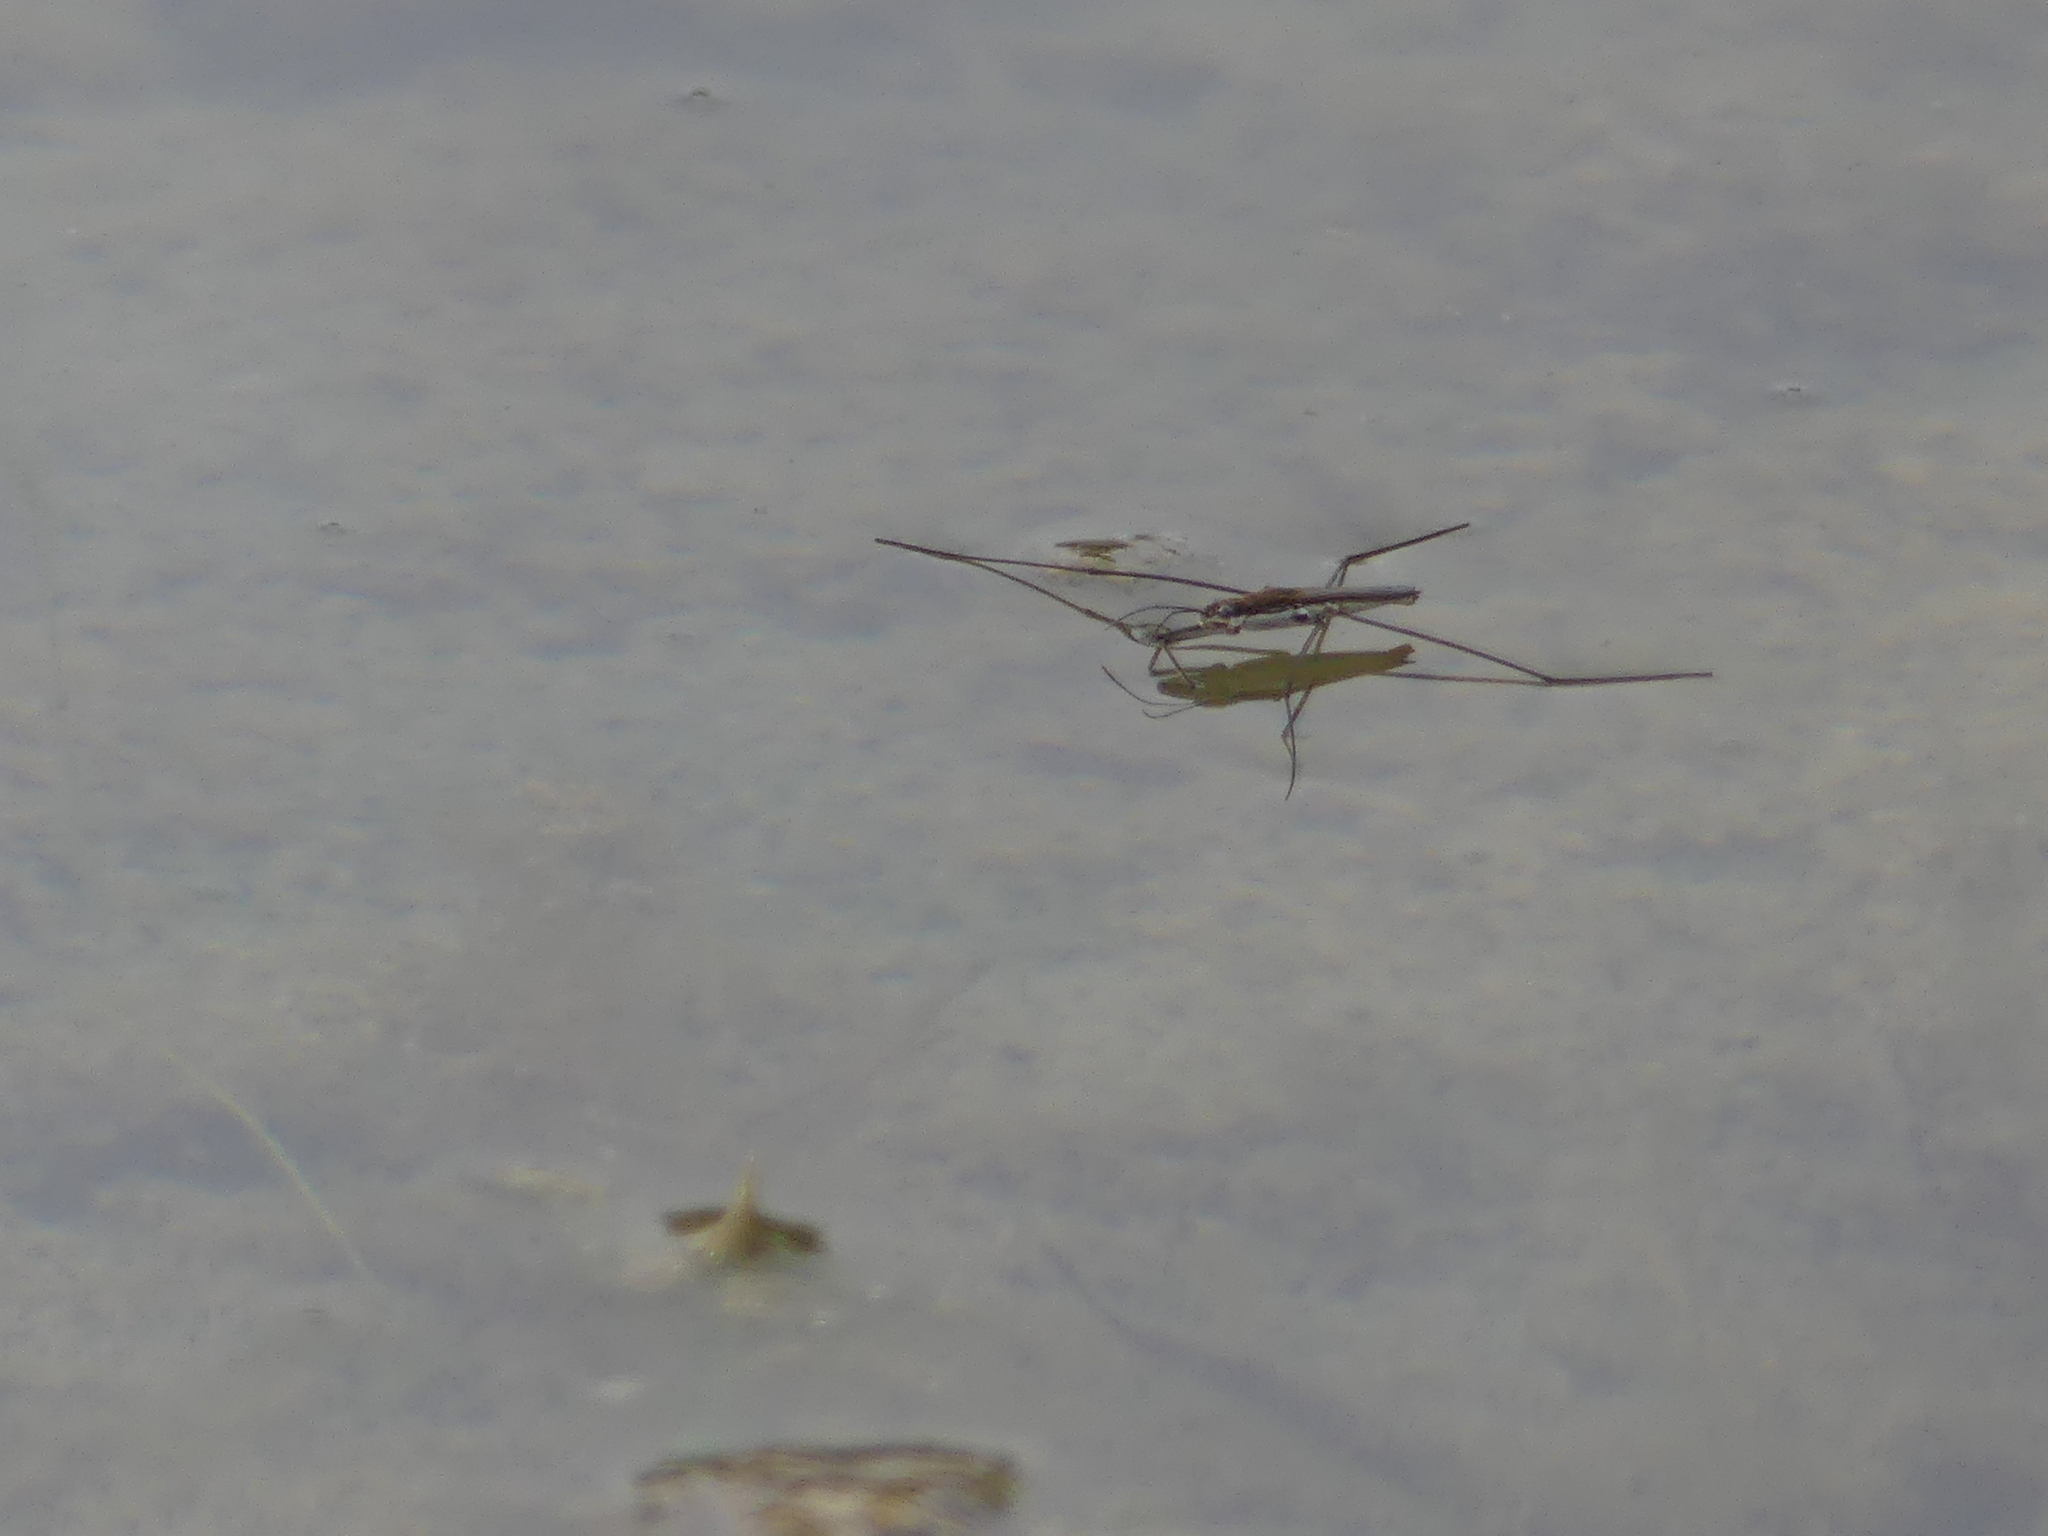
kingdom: Animalia
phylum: Arthropoda
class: Insecta
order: Hemiptera
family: Gerridae
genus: Aquarius
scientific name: Aquarius paludum
